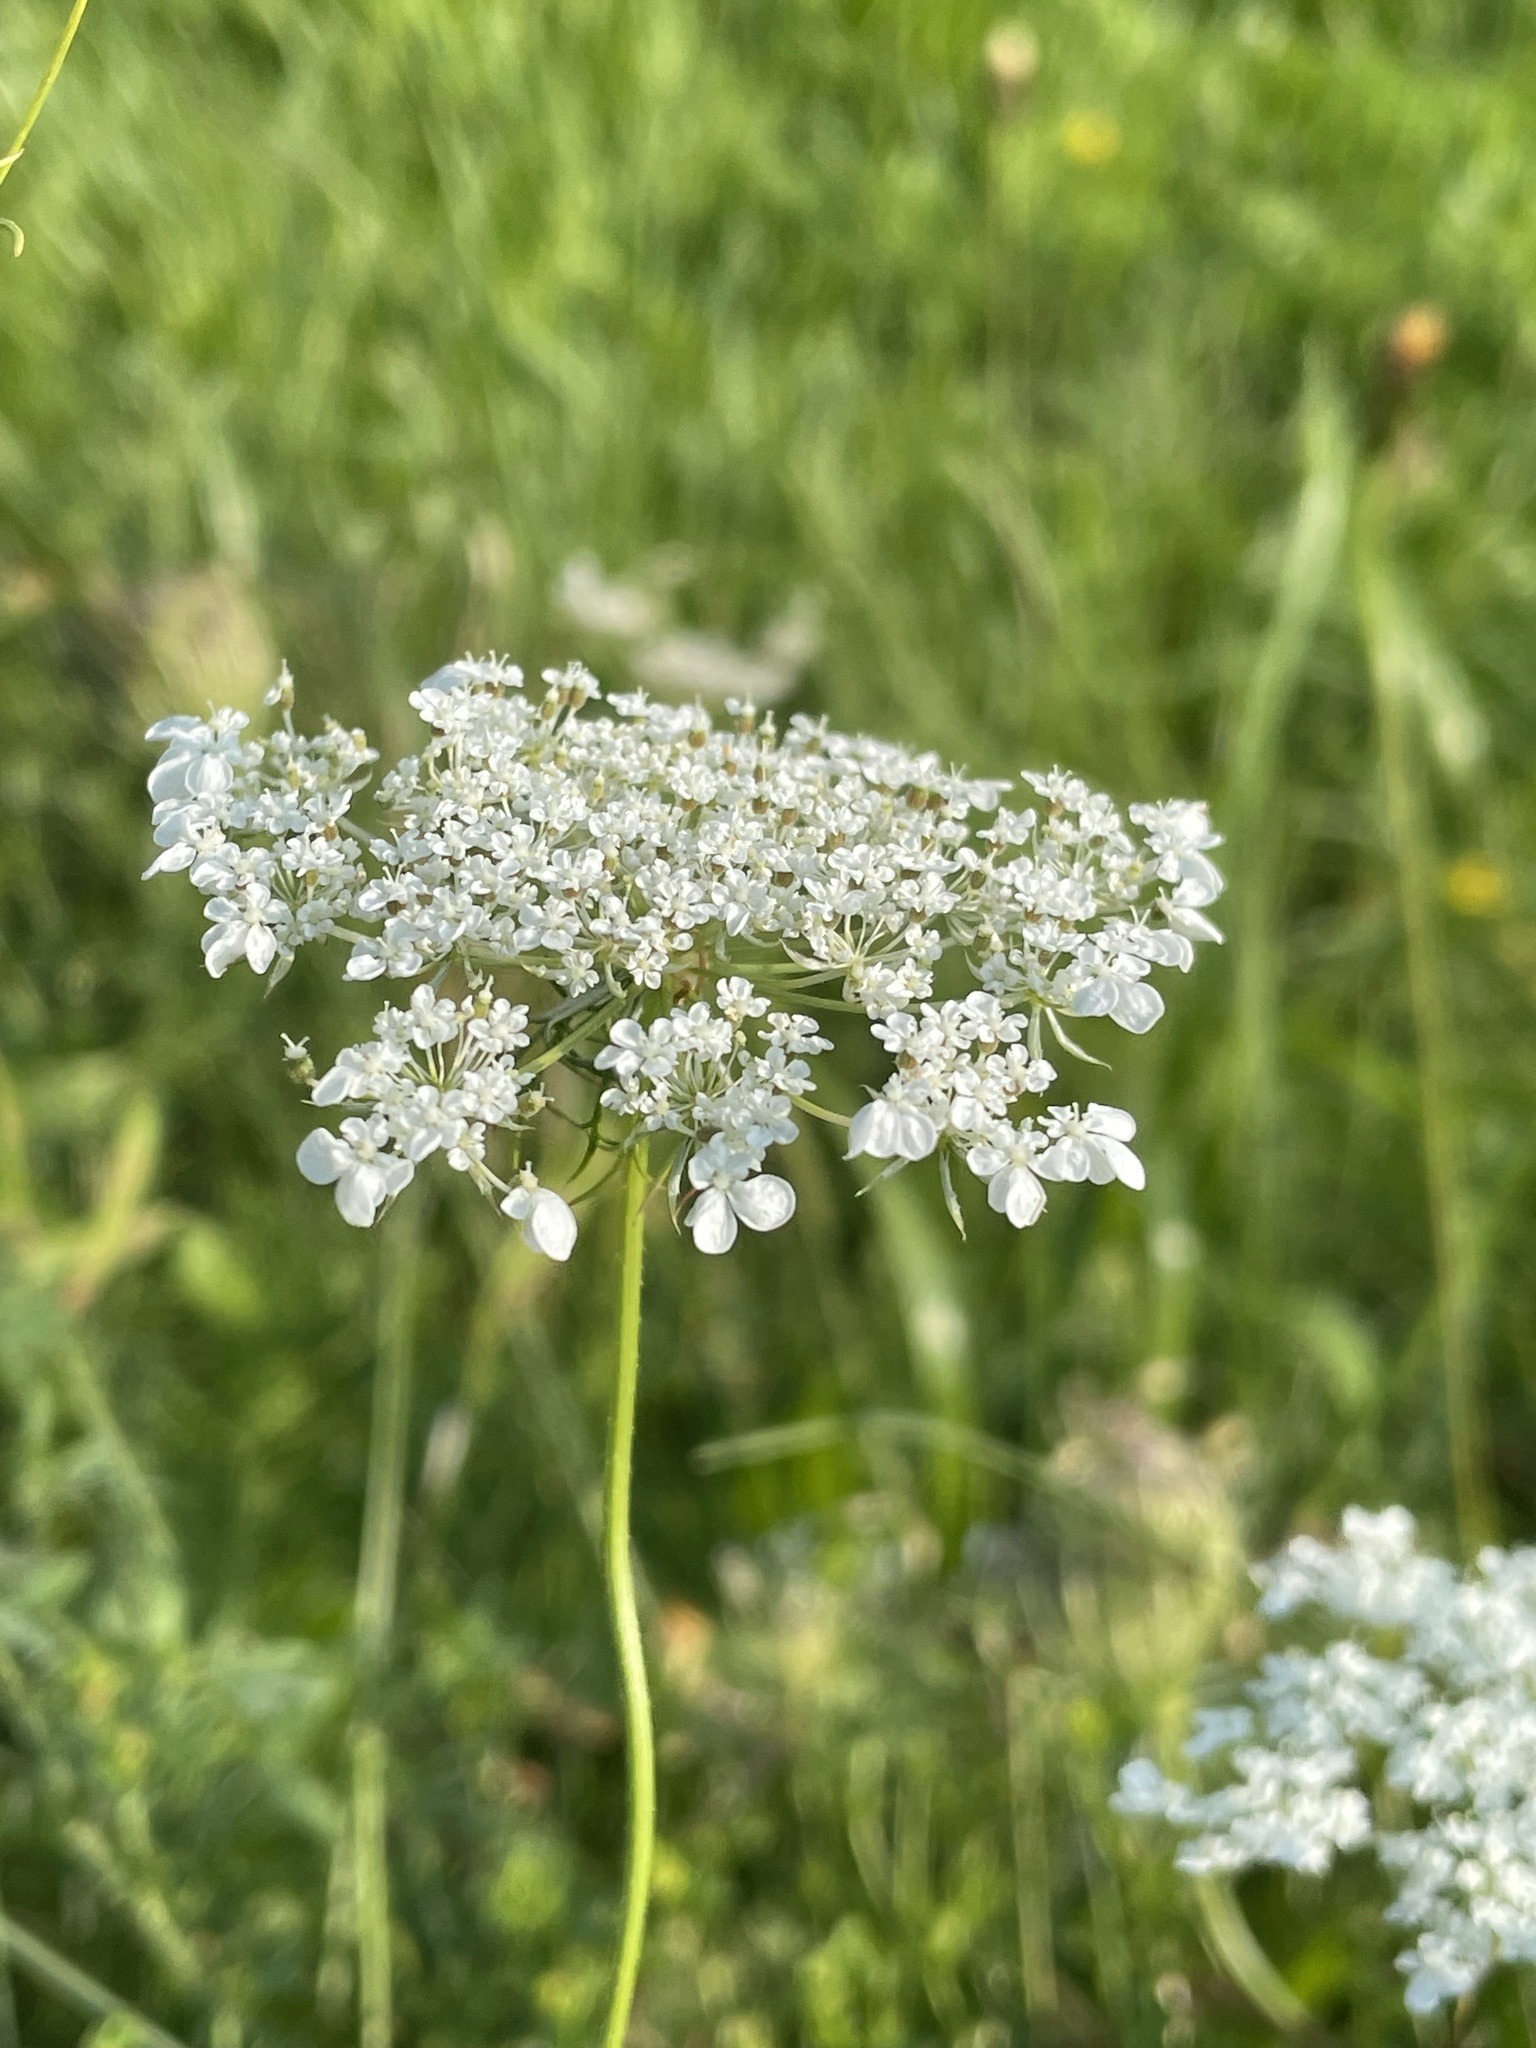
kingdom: Plantae
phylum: Tracheophyta
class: Magnoliopsida
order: Apiales
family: Apiaceae
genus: Daucus
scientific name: Daucus carota
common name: Wild carrot
